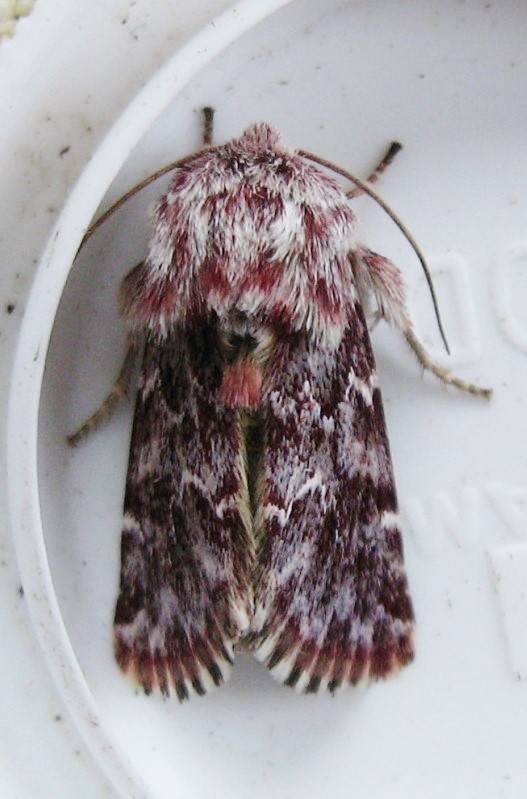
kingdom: Animalia
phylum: Arthropoda
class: Insecta
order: Lepidoptera
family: Noctuidae
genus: Schinia
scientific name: Schinia lucens
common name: Leadplant flower moth
